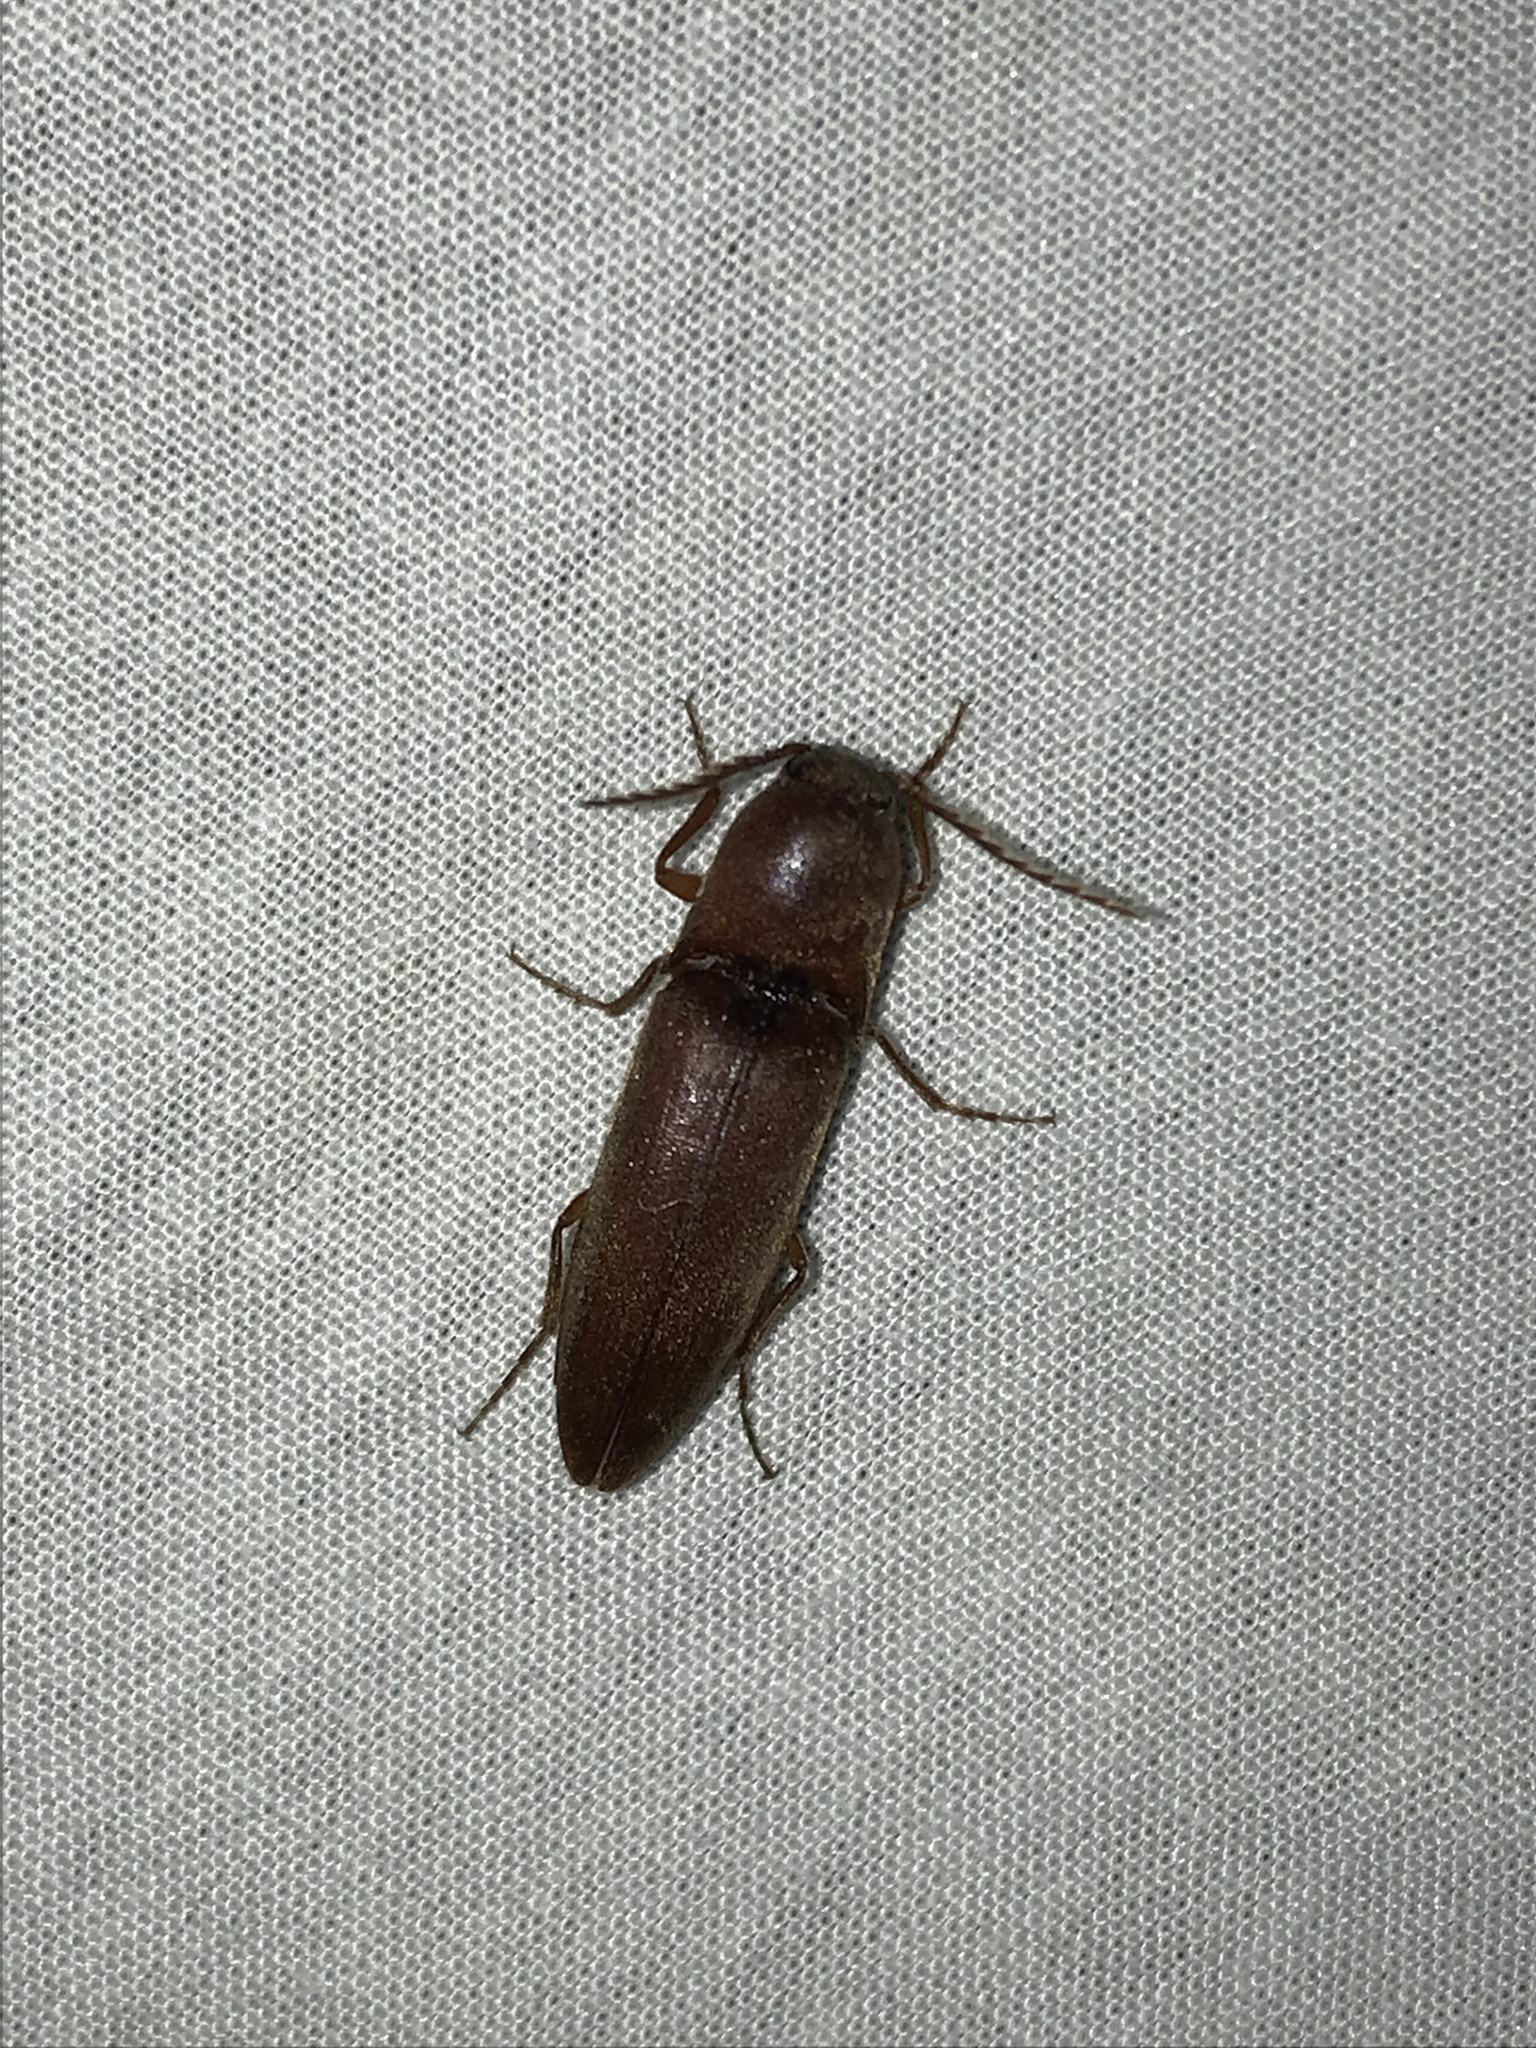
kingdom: Animalia
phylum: Arthropoda
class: Insecta
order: Coleoptera
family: Elateridae
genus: Mulsanteus
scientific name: Mulsanteus
